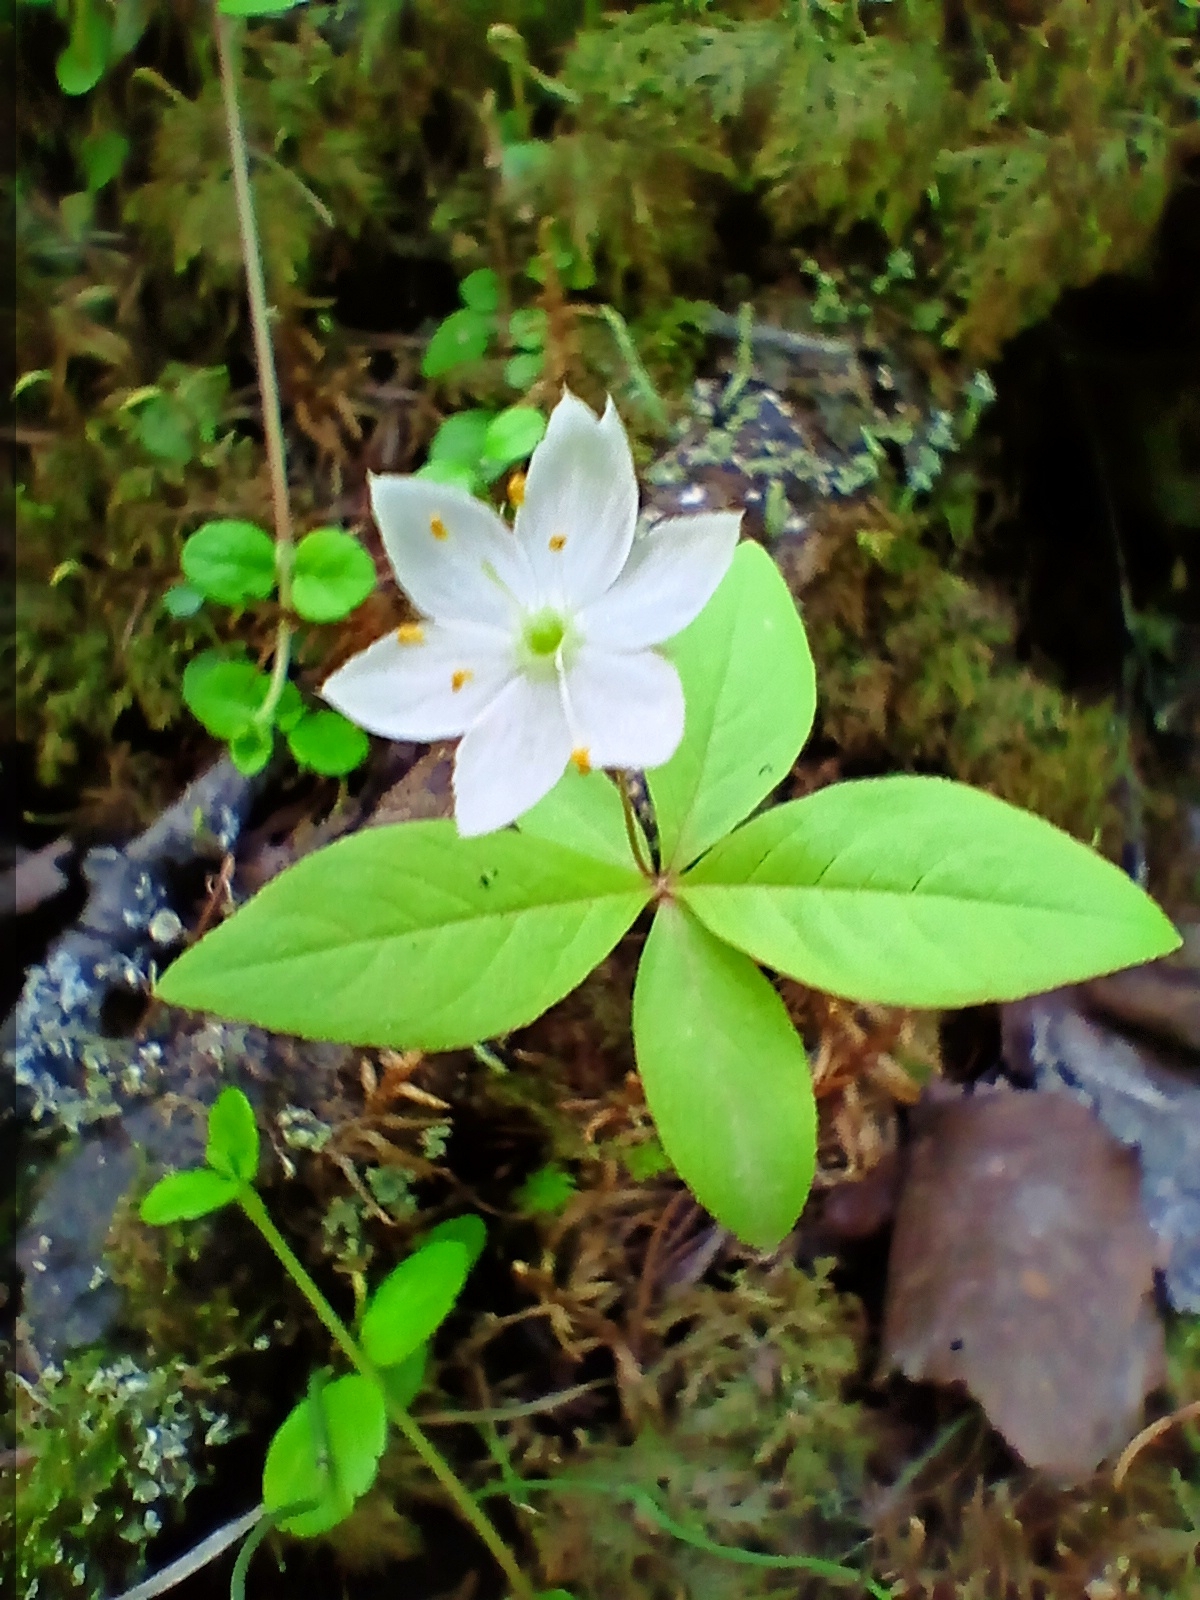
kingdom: Plantae
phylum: Tracheophyta
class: Magnoliopsida
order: Ericales
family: Primulaceae
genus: Lysimachia
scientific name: Lysimachia europaea
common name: Arctic starflower
